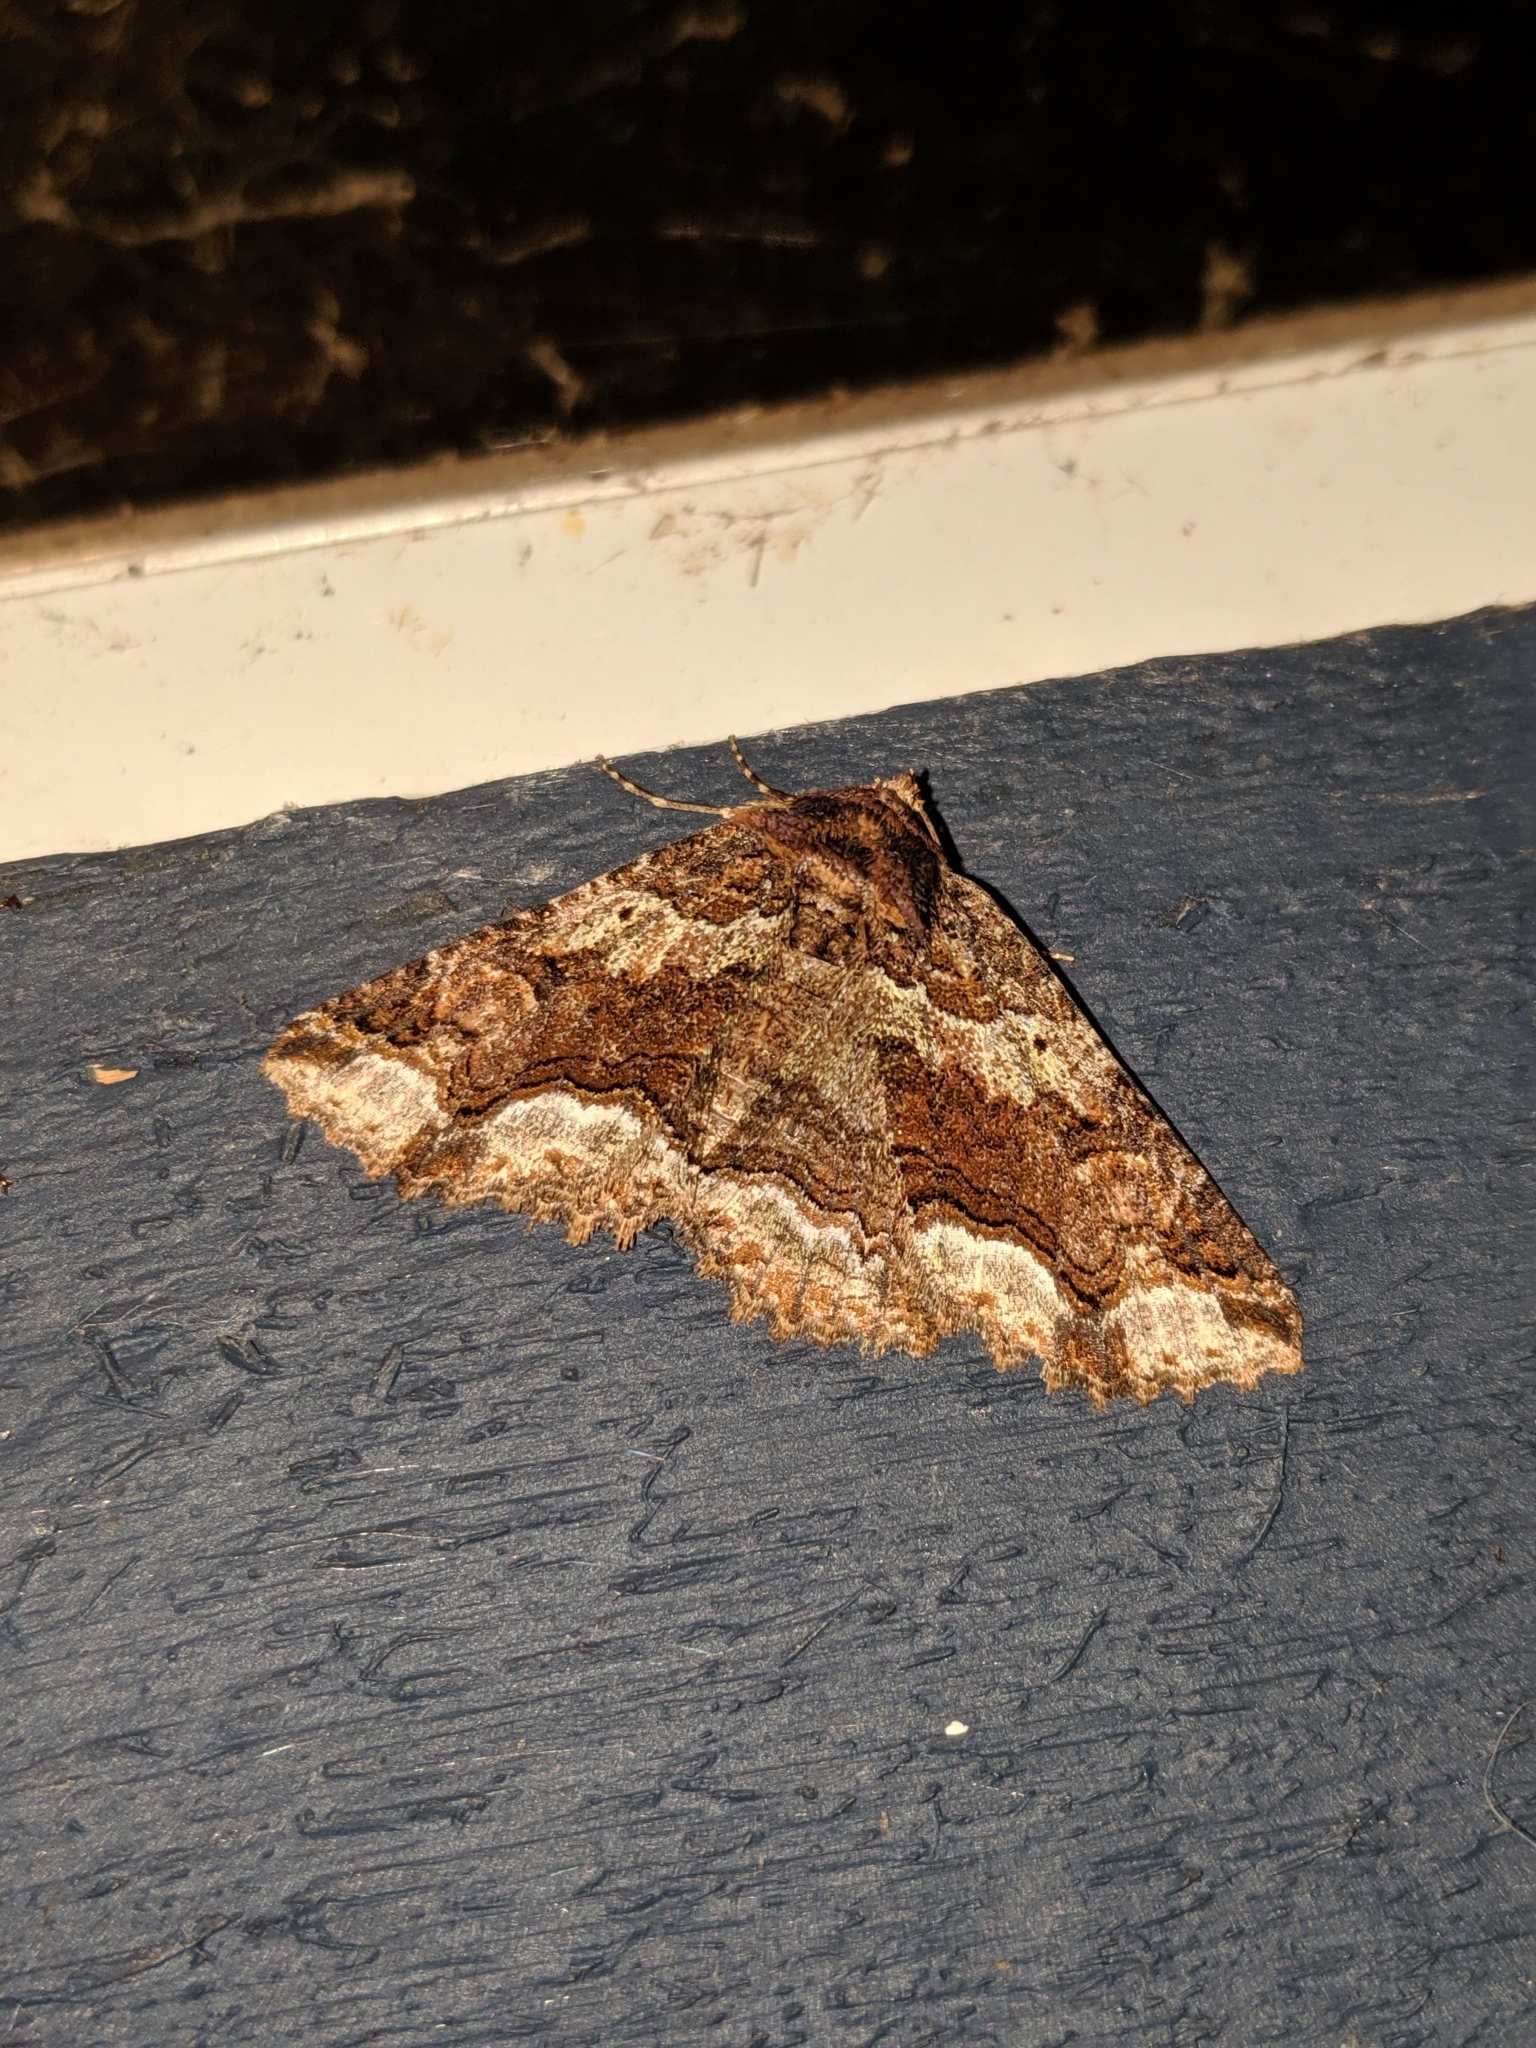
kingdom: Animalia
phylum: Arthropoda
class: Insecta
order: Lepidoptera
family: Erebidae
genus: Zale
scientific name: Zale minerea
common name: Colorful zale moth
